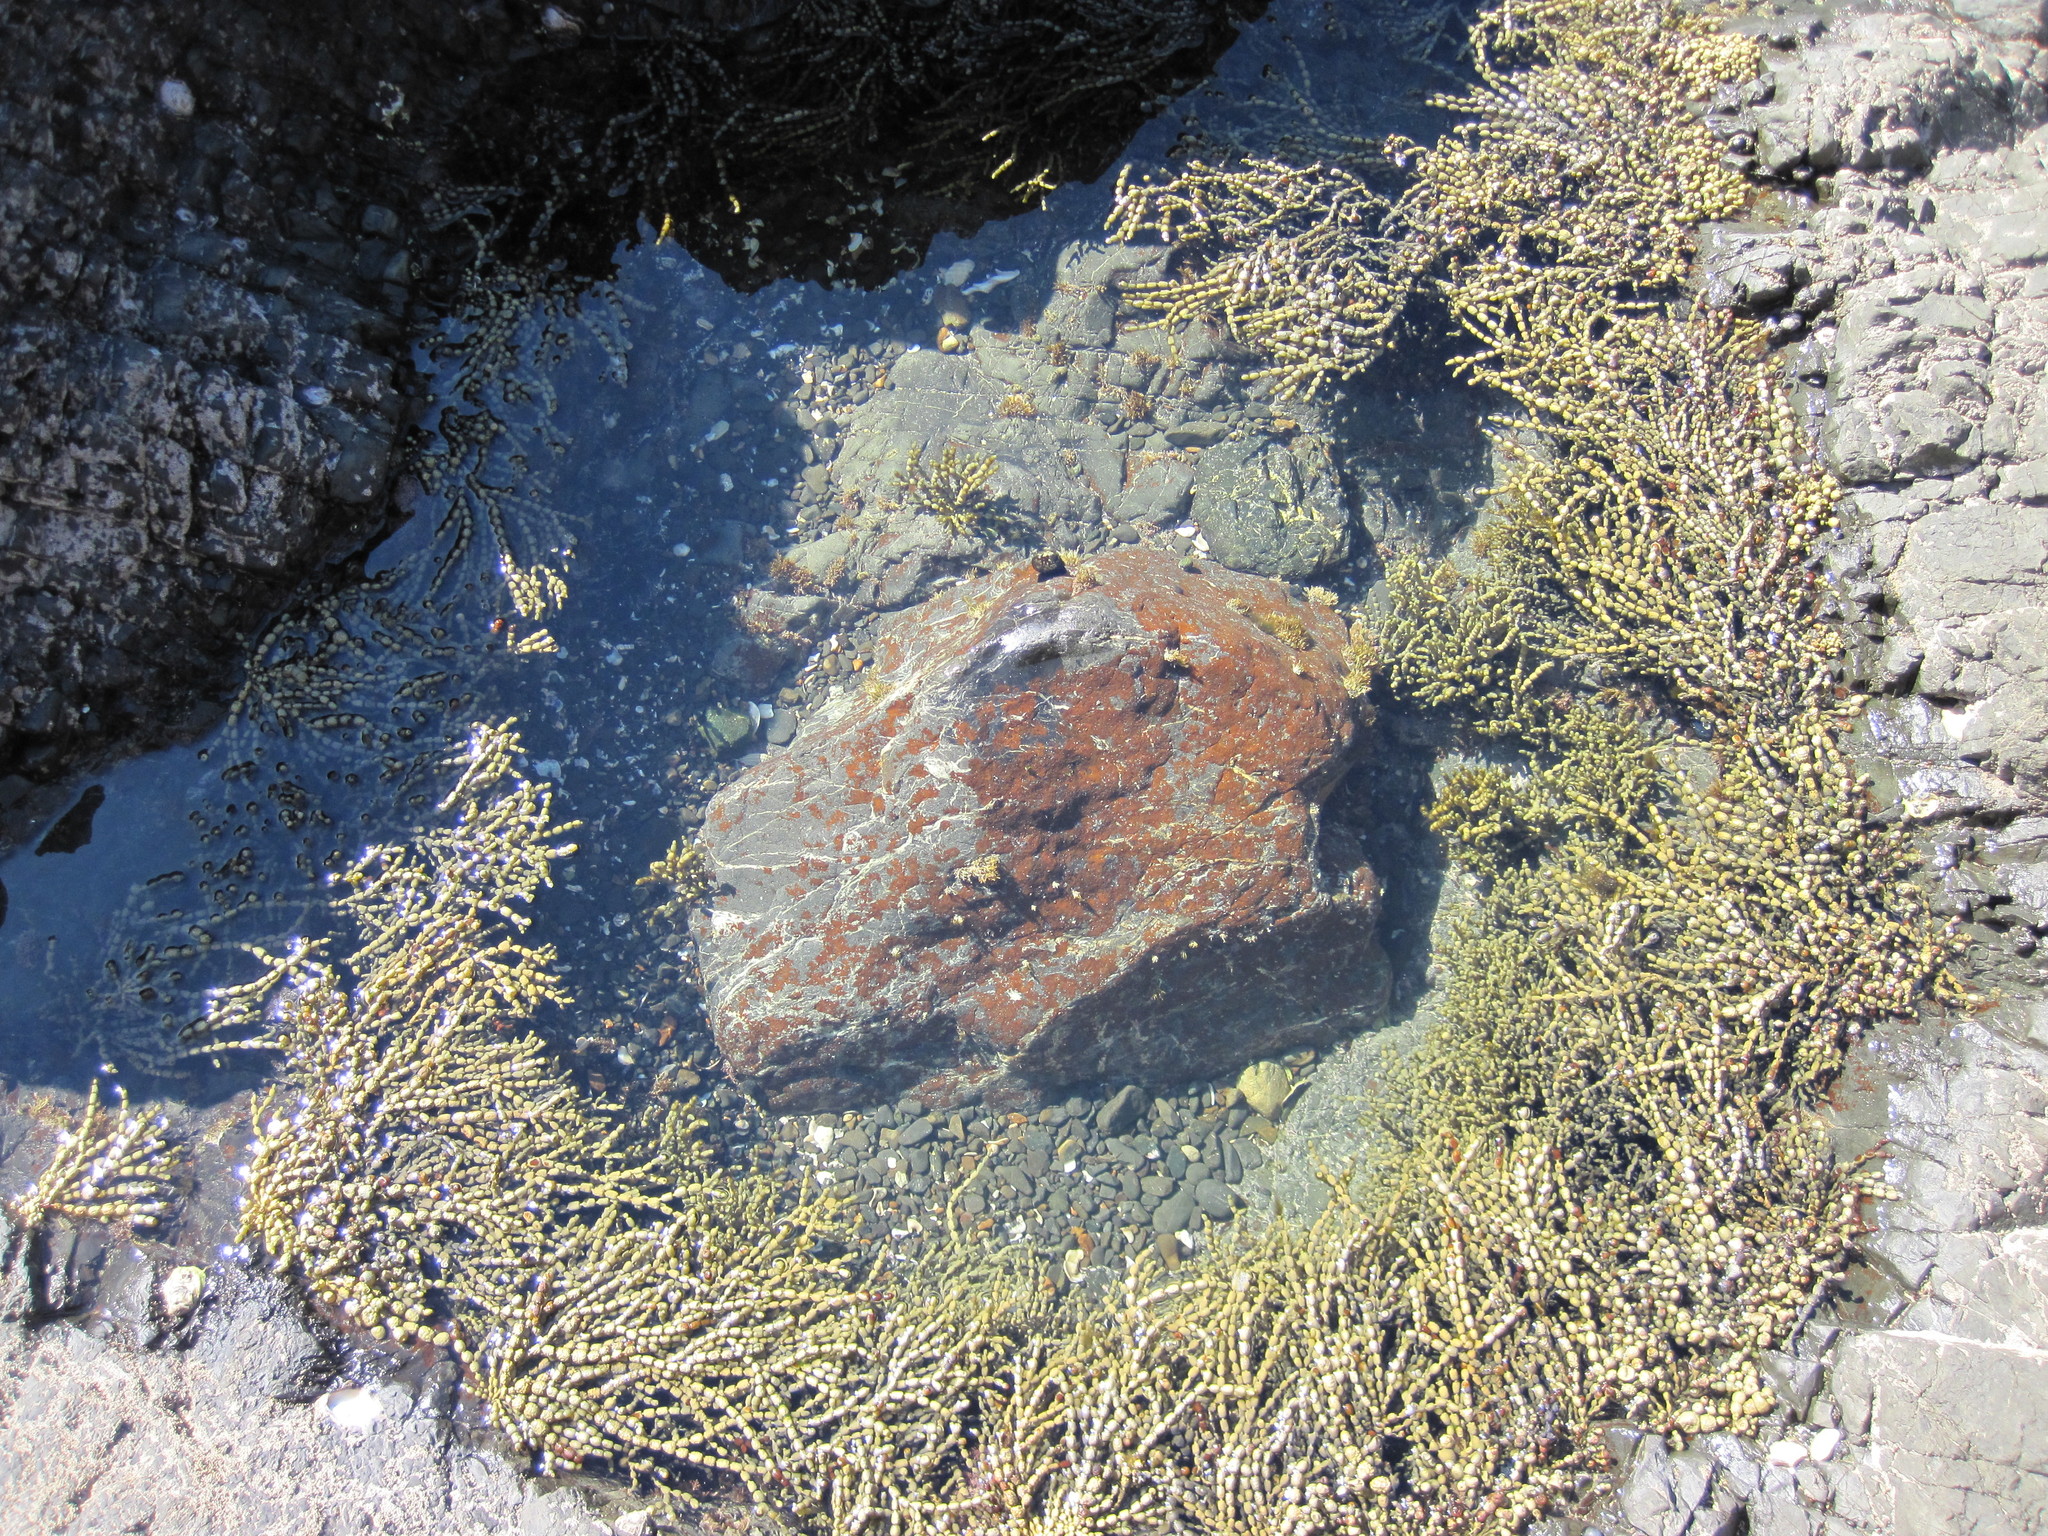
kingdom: Chromista
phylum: Ochrophyta
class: Phaeophyceae
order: Fucales
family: Hormosiraceae
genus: Hormosira
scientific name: Hormosira banksii
